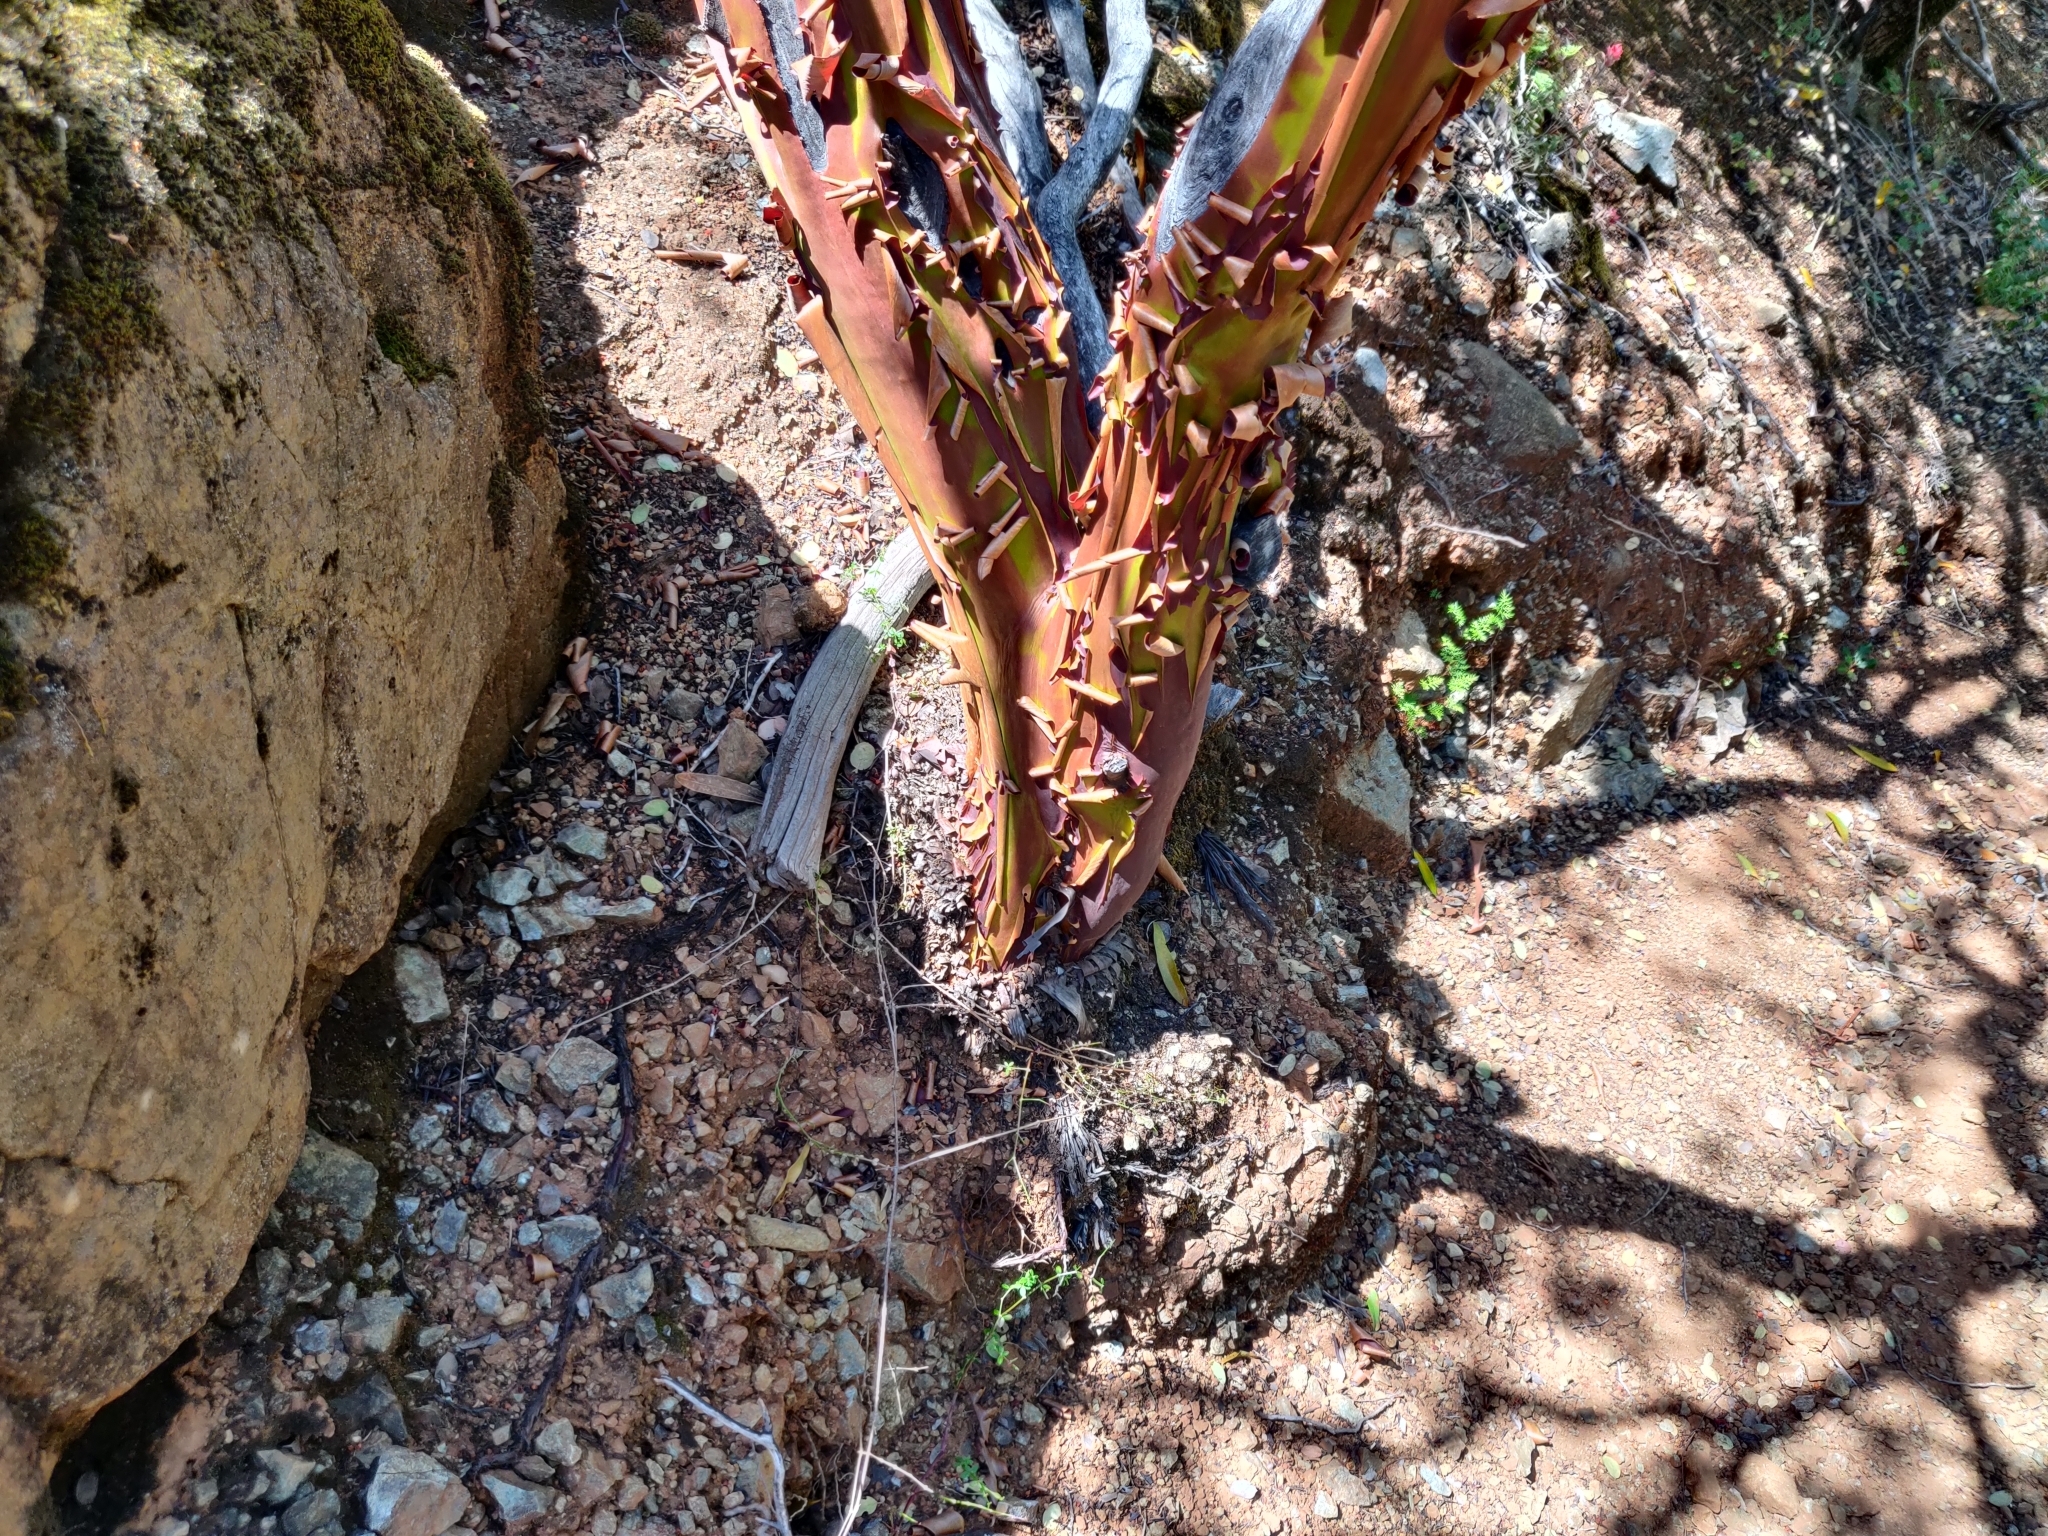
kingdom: Plantae
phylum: Tracheophyta
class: Magnoliopsida
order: Ericales
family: Ericaceae
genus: Arctostaphylos
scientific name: Arctostaphylos viscida
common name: White-leaf manzanita
